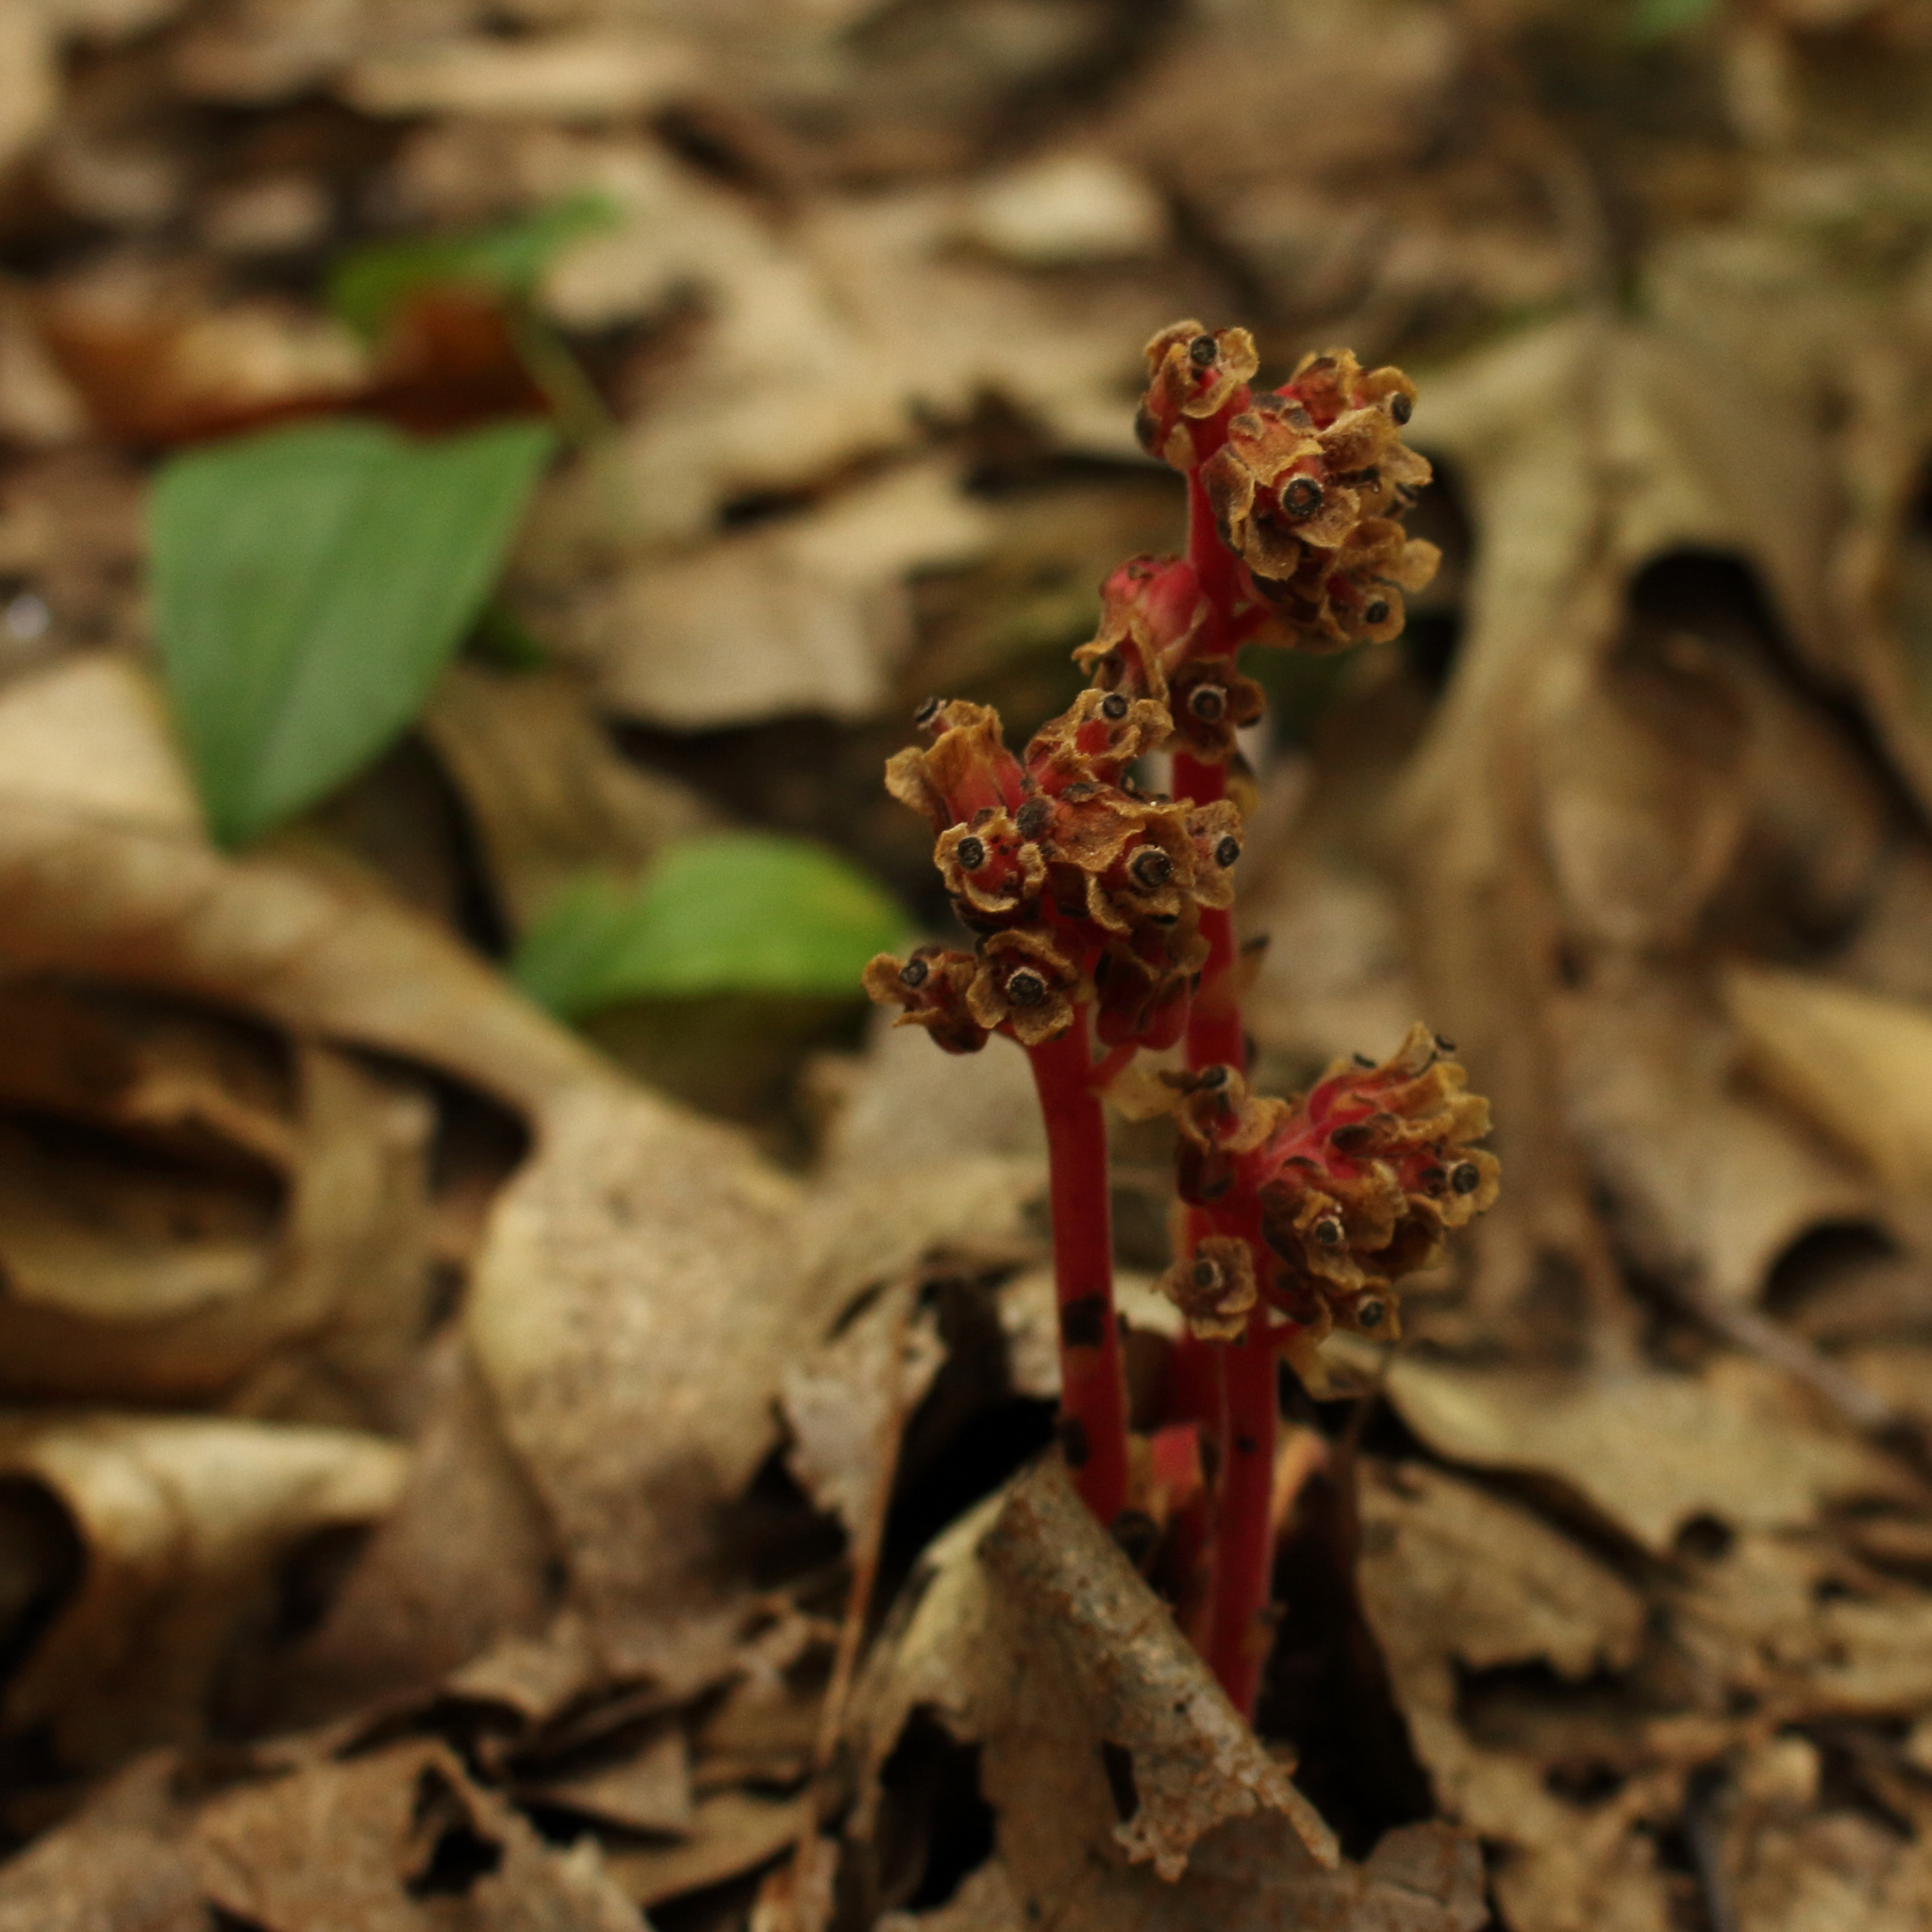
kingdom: Plantae
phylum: Tracheophyta
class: Magnoliopsida
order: Ericales
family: Ericaceae
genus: Hypopitys
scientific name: Hypopitys monotropa
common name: Yellow bird's-nest
